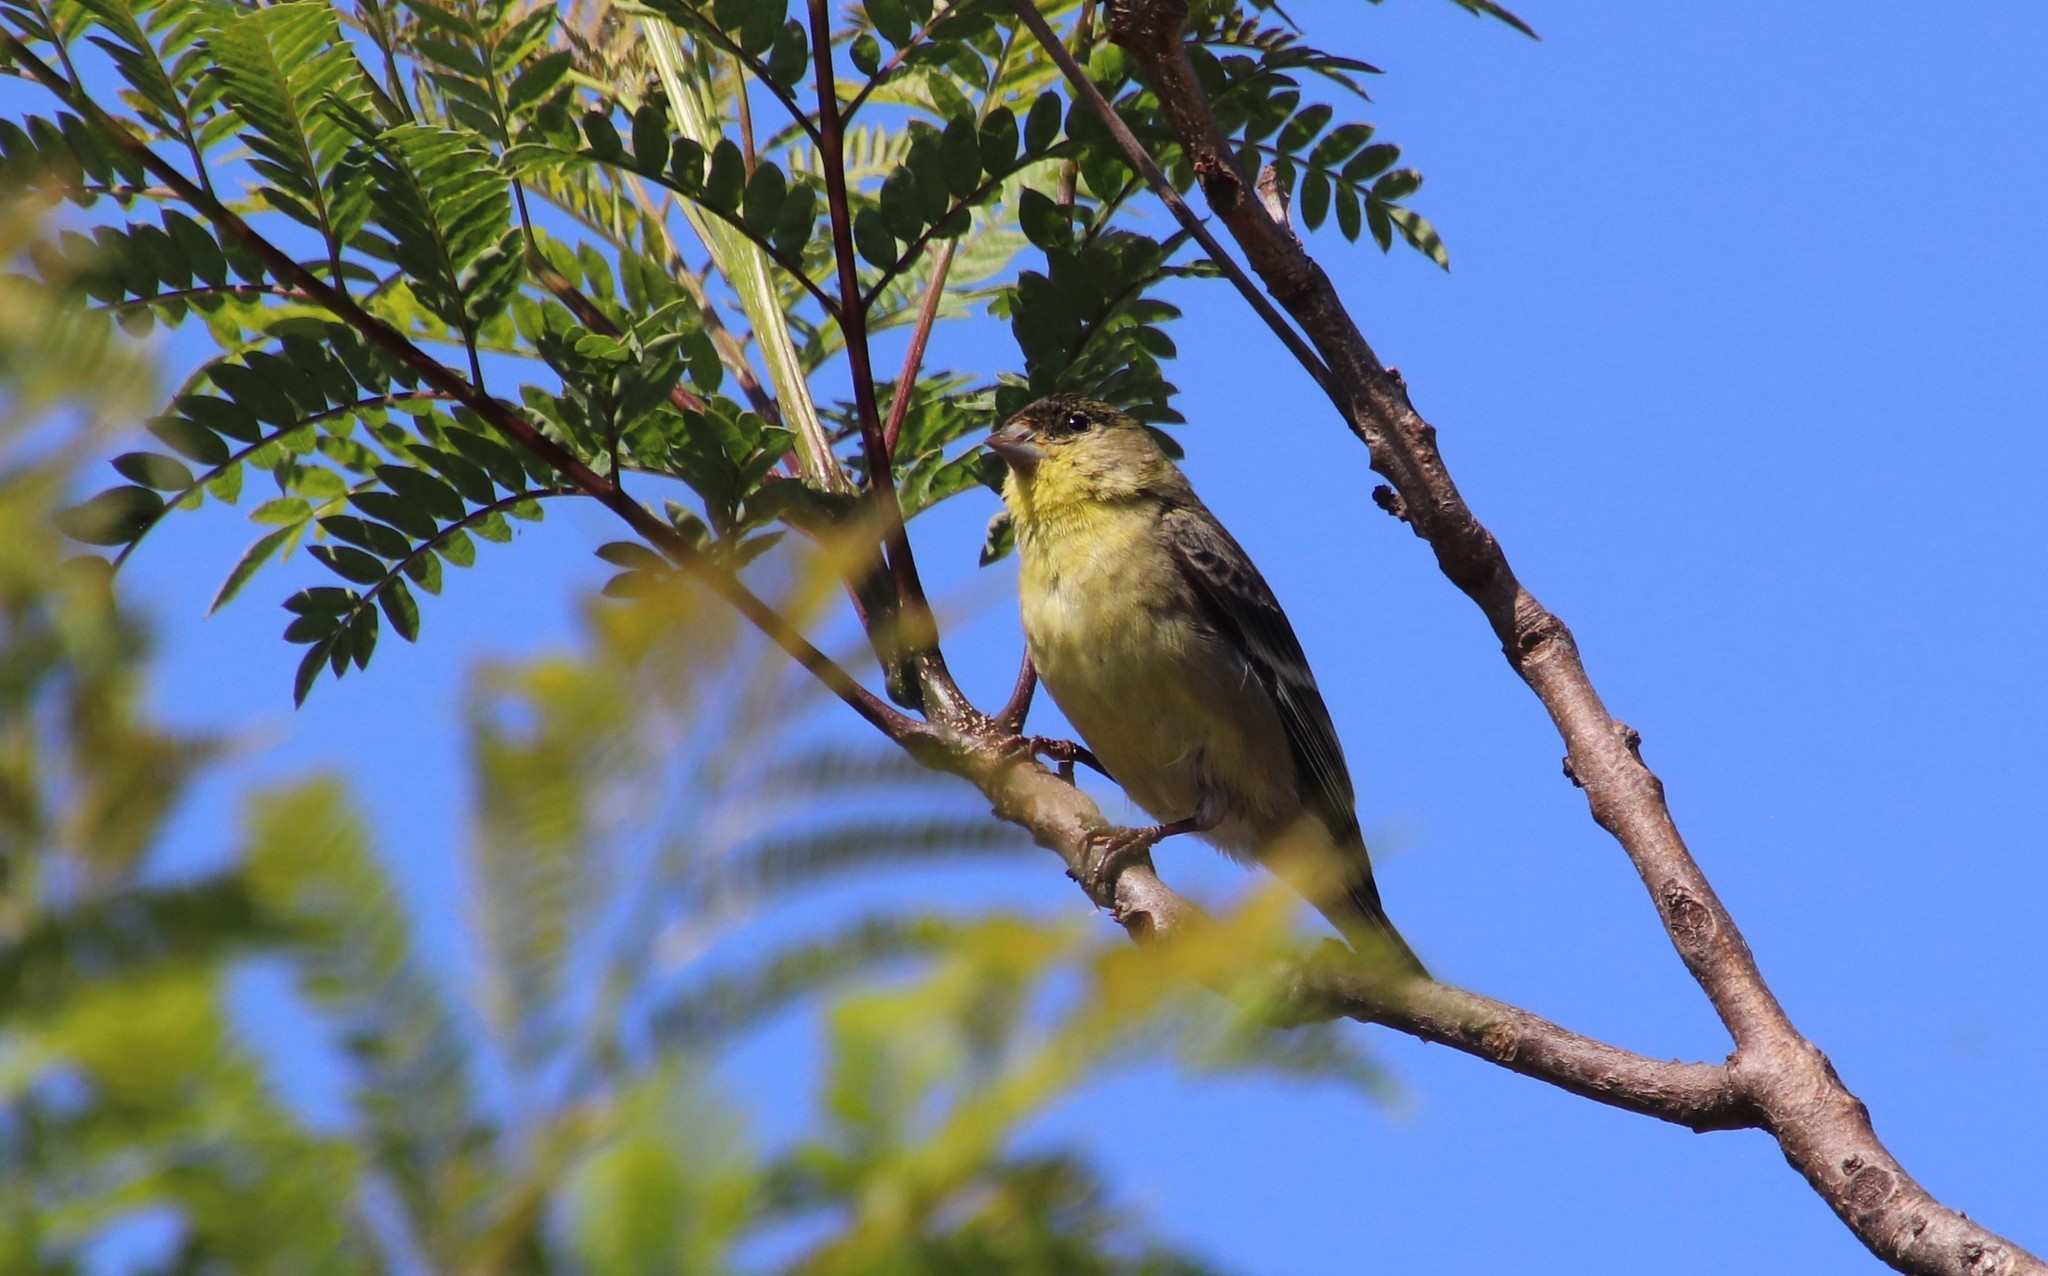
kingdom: Animalia
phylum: Chordata
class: Aves
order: Passeriformes
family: Fringillidae
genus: Spinus
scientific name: Spinus psaltria
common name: Lesser goldfinch
